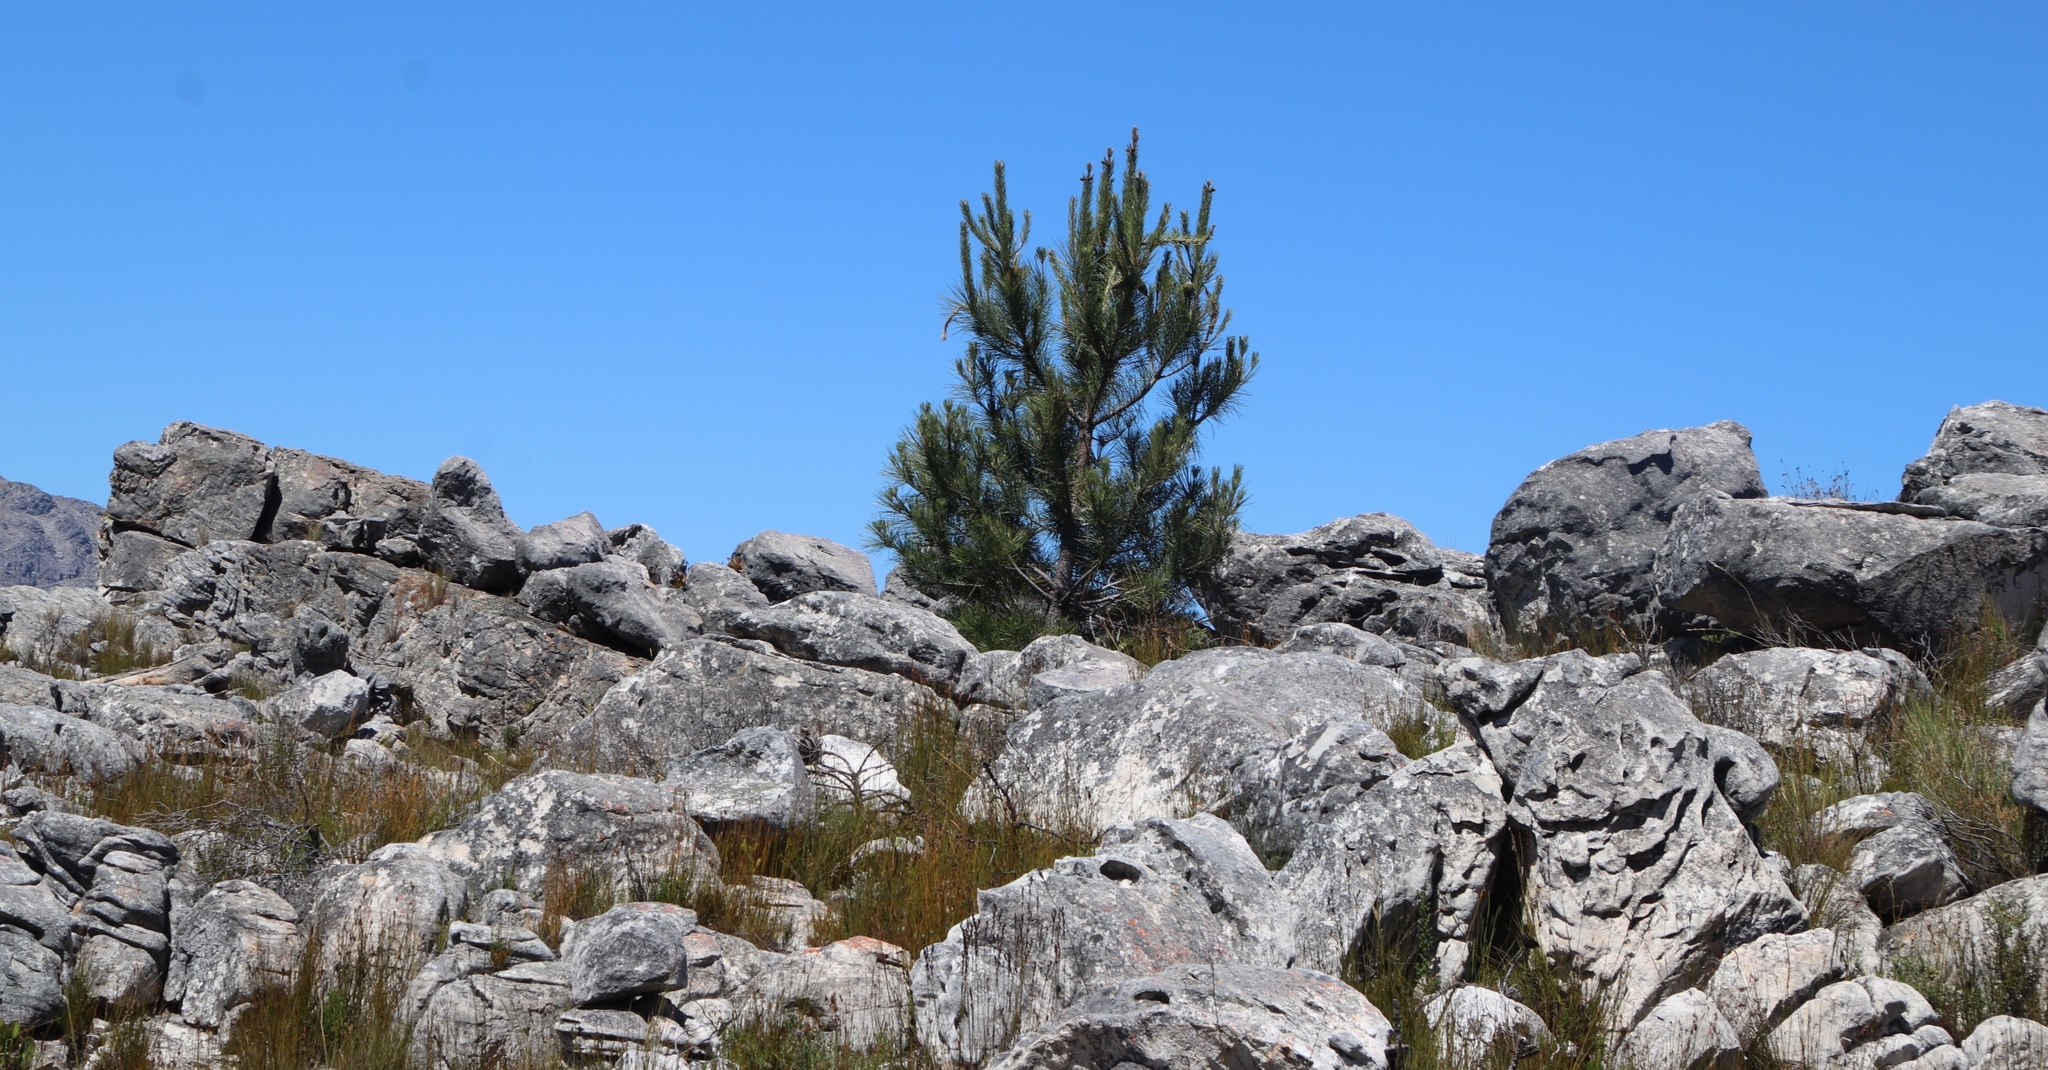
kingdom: Plantae
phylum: Tracheophyta
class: Pinopsida
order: Pinales
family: Pinaceae
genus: Pinus
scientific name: Pinus pinaster
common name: Maritime pine
